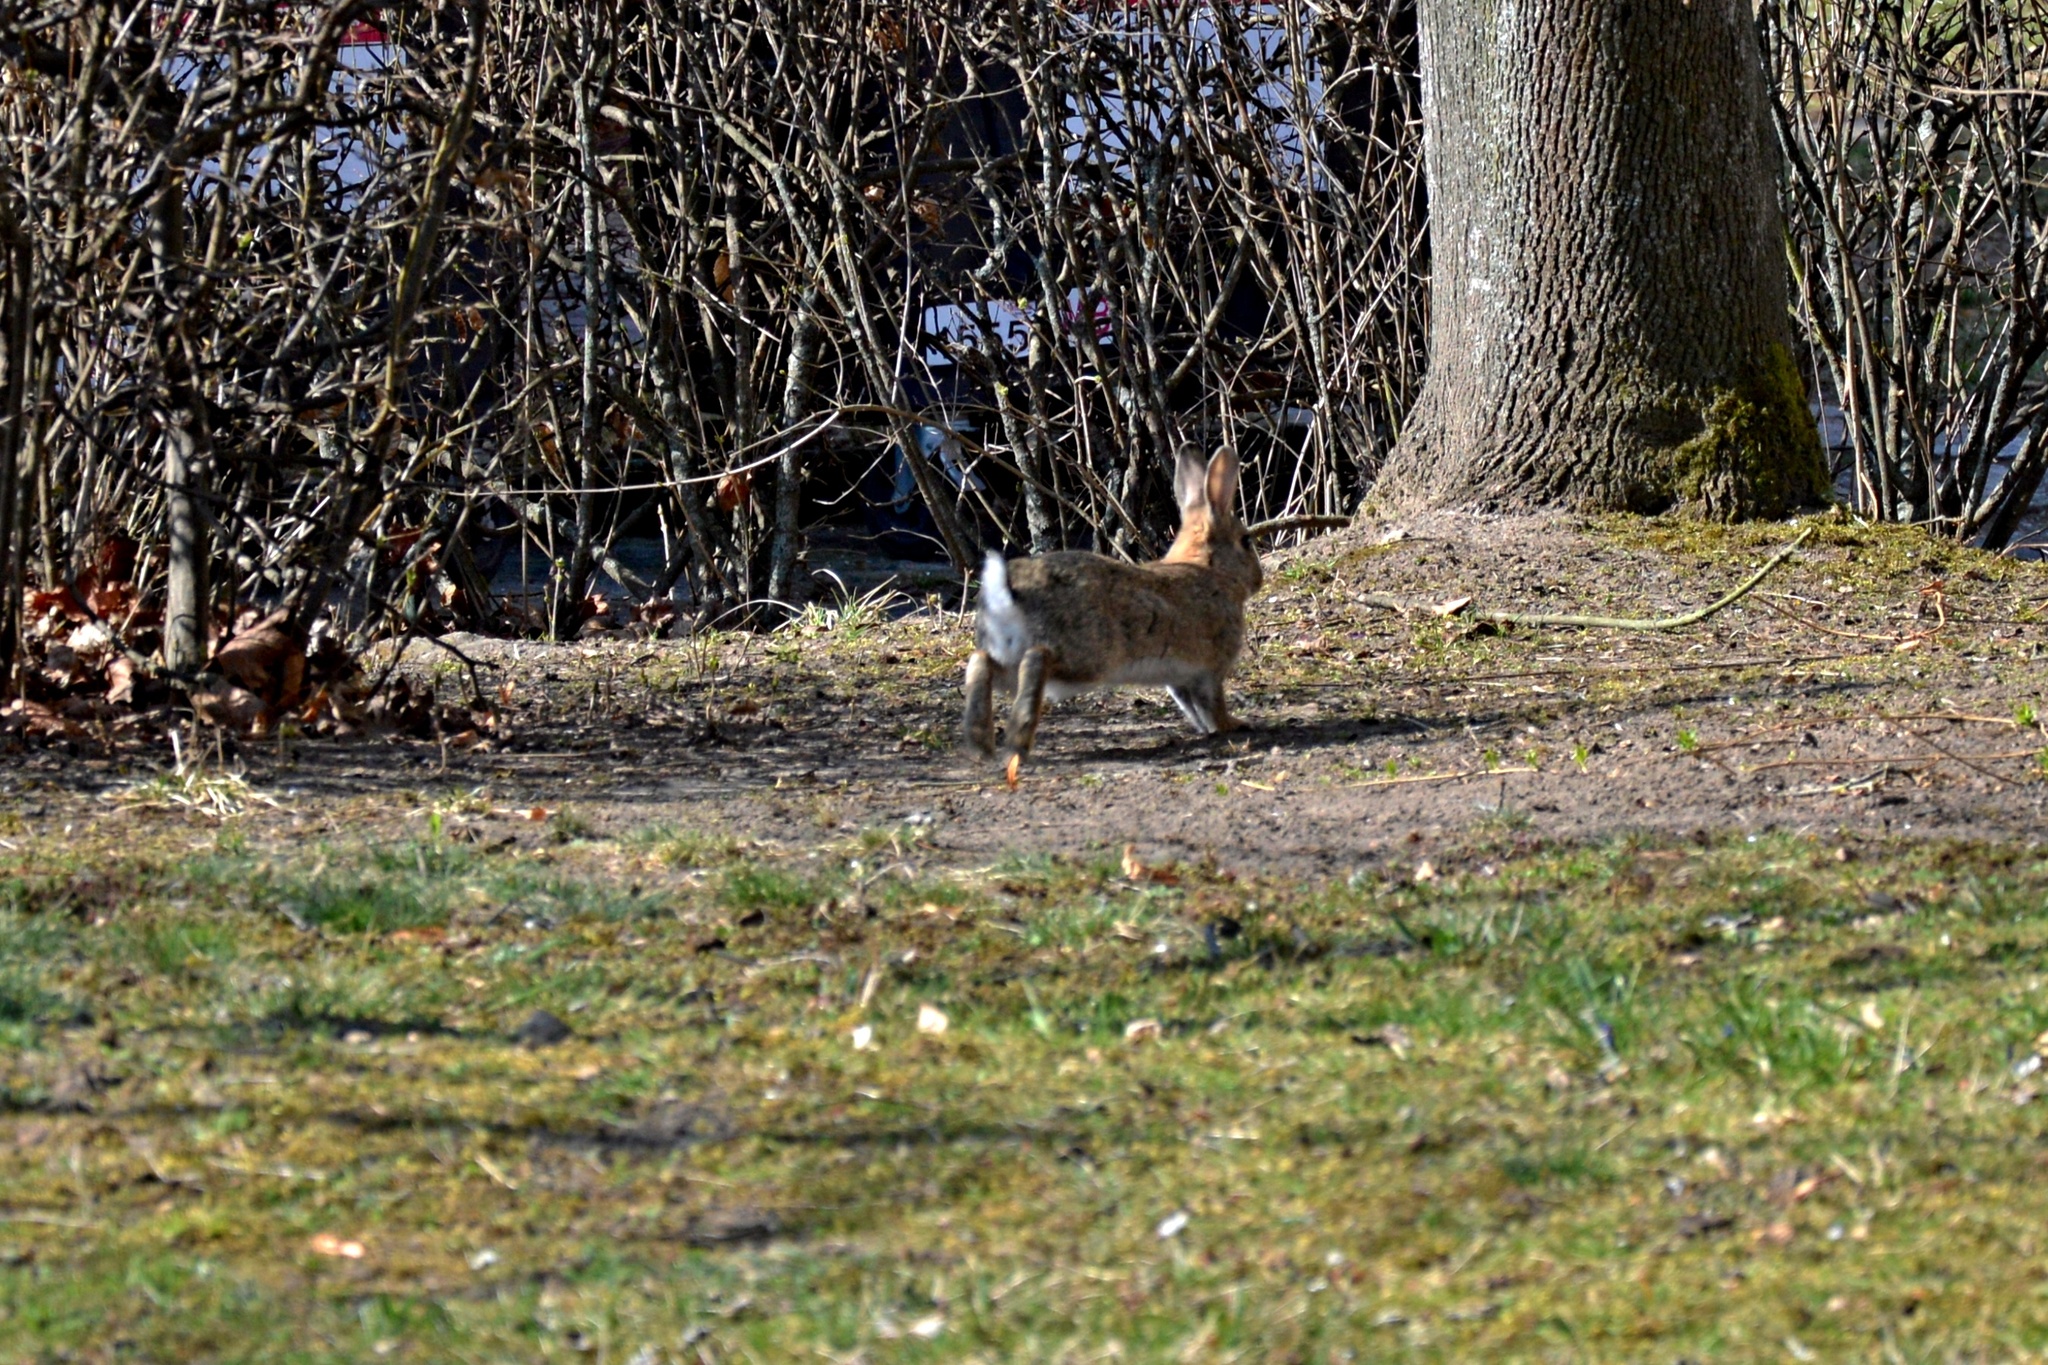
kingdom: Animalia
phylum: Chordata
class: Mammalia
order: Lagomorpha
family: Leporidae
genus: Oryctolagus
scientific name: Oryctolagus cuniculus
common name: European rabbit
